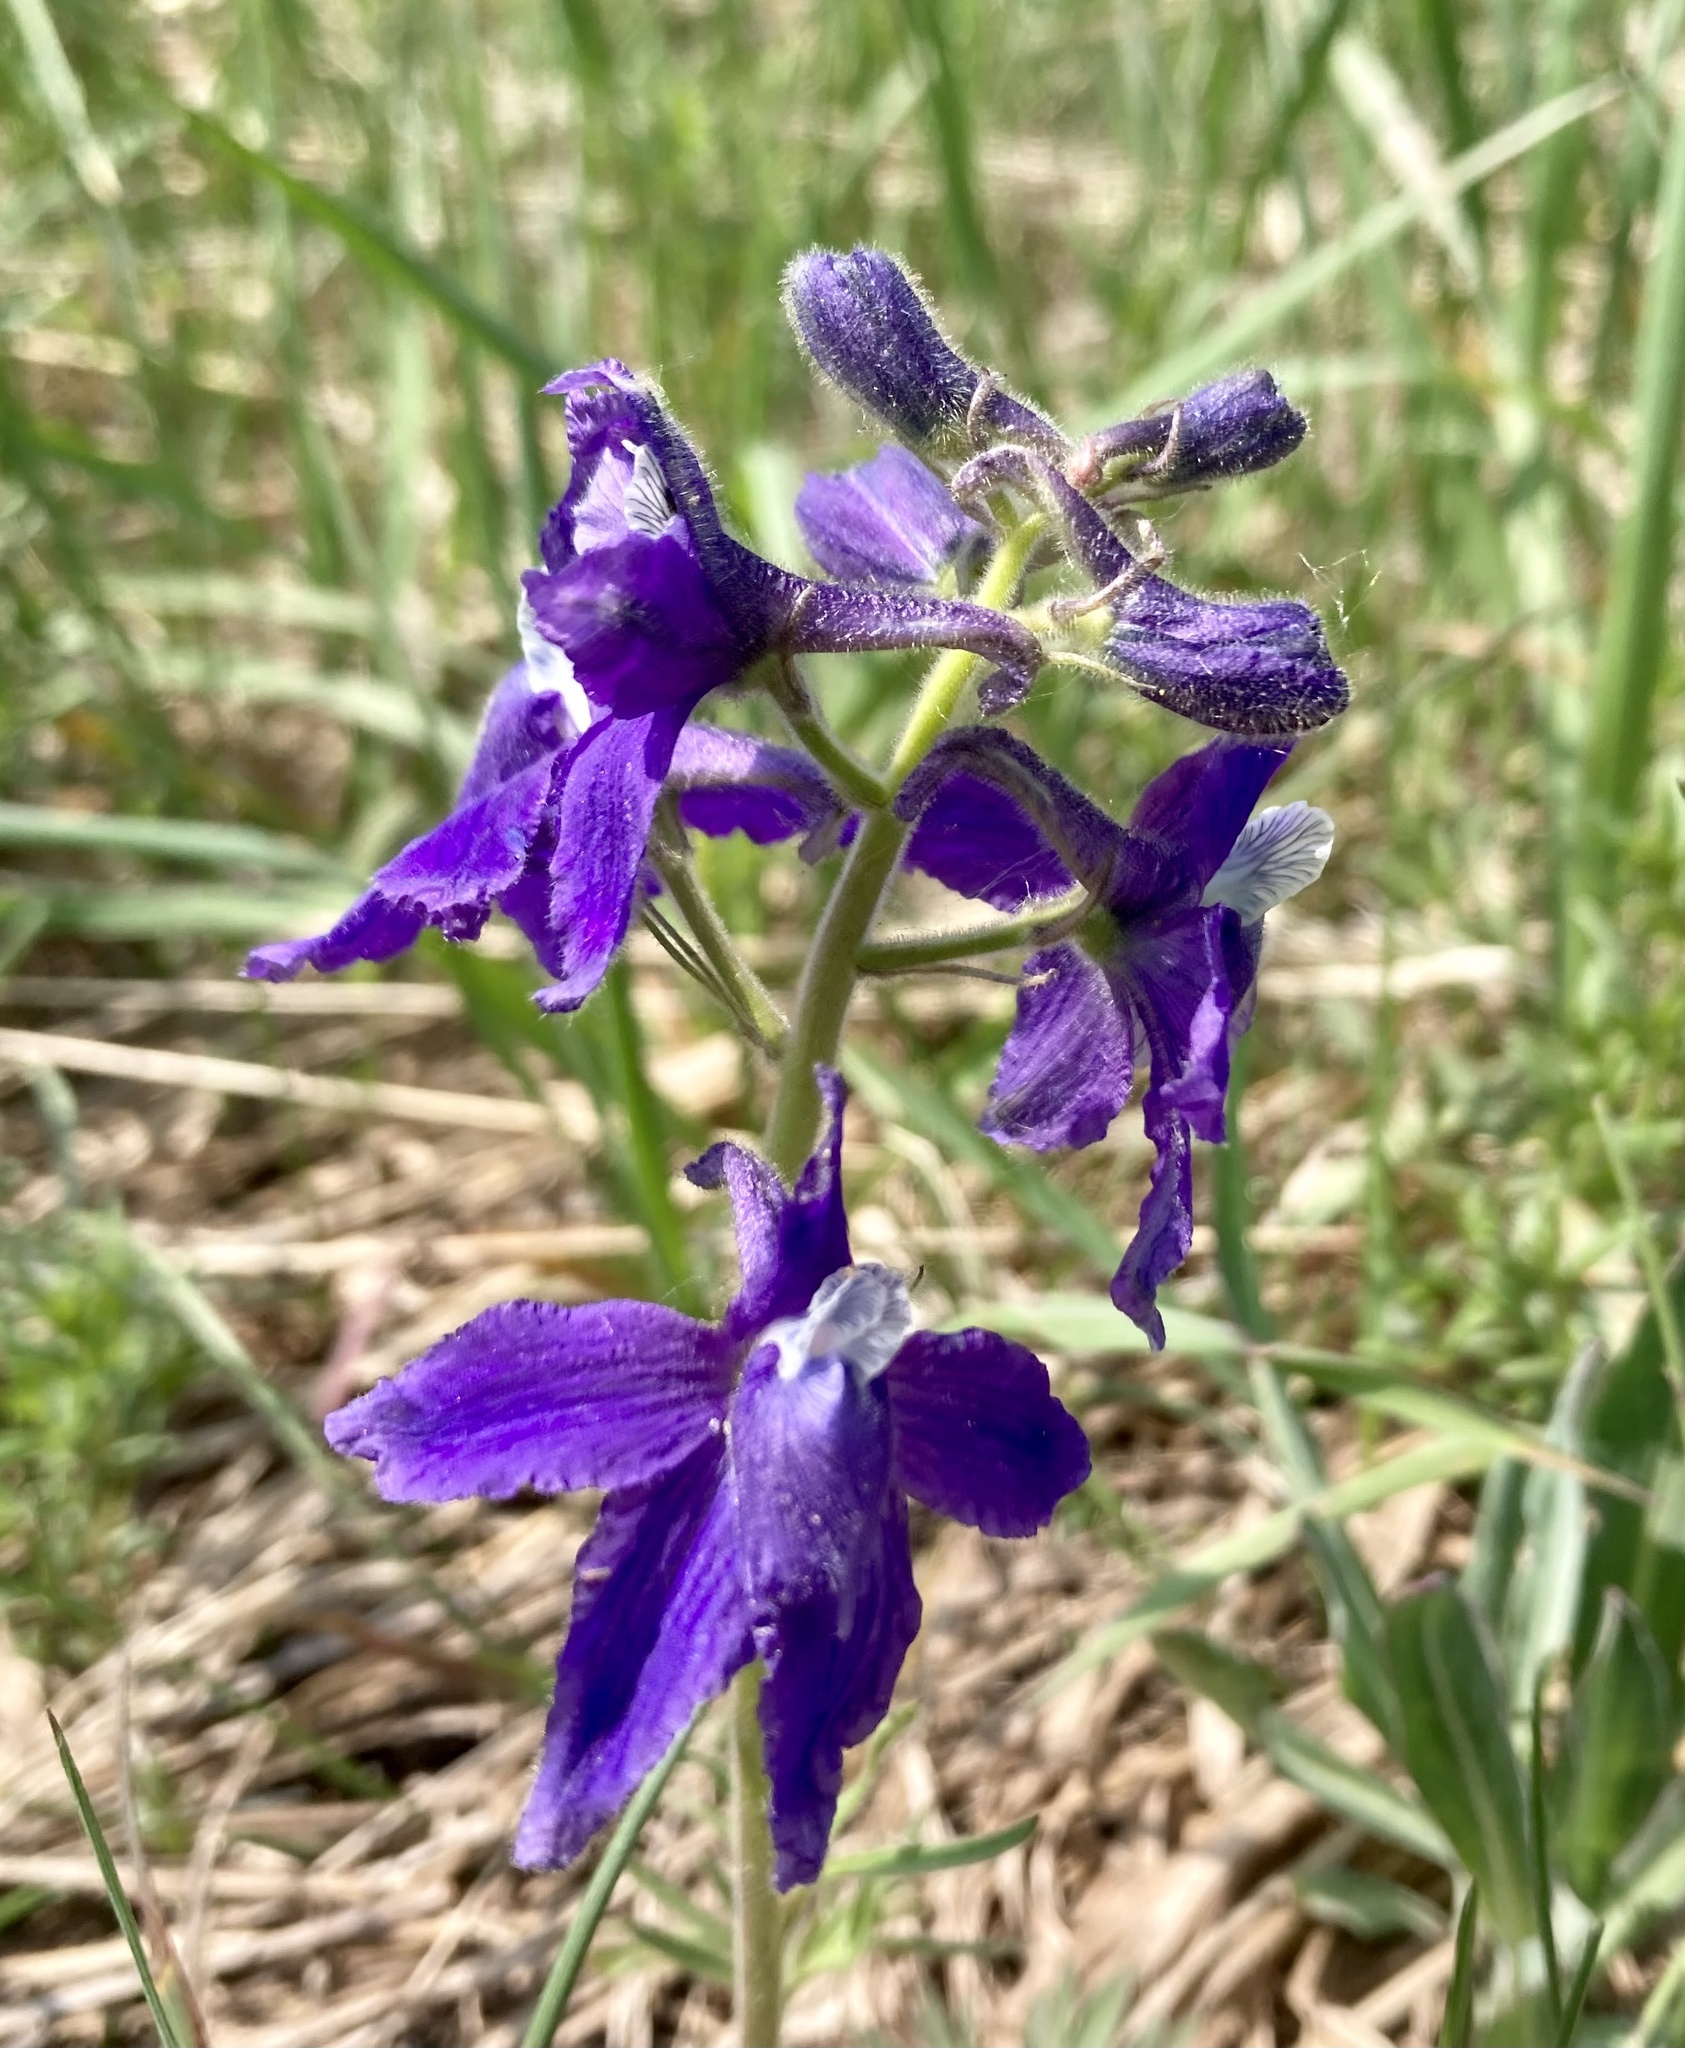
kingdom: Plantae
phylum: Tracheophyta
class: Magnoliopsida
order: Ranunculales
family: Ranunculaceae
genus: Delphinium
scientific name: Delphinium bicolor
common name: Low larkspur
